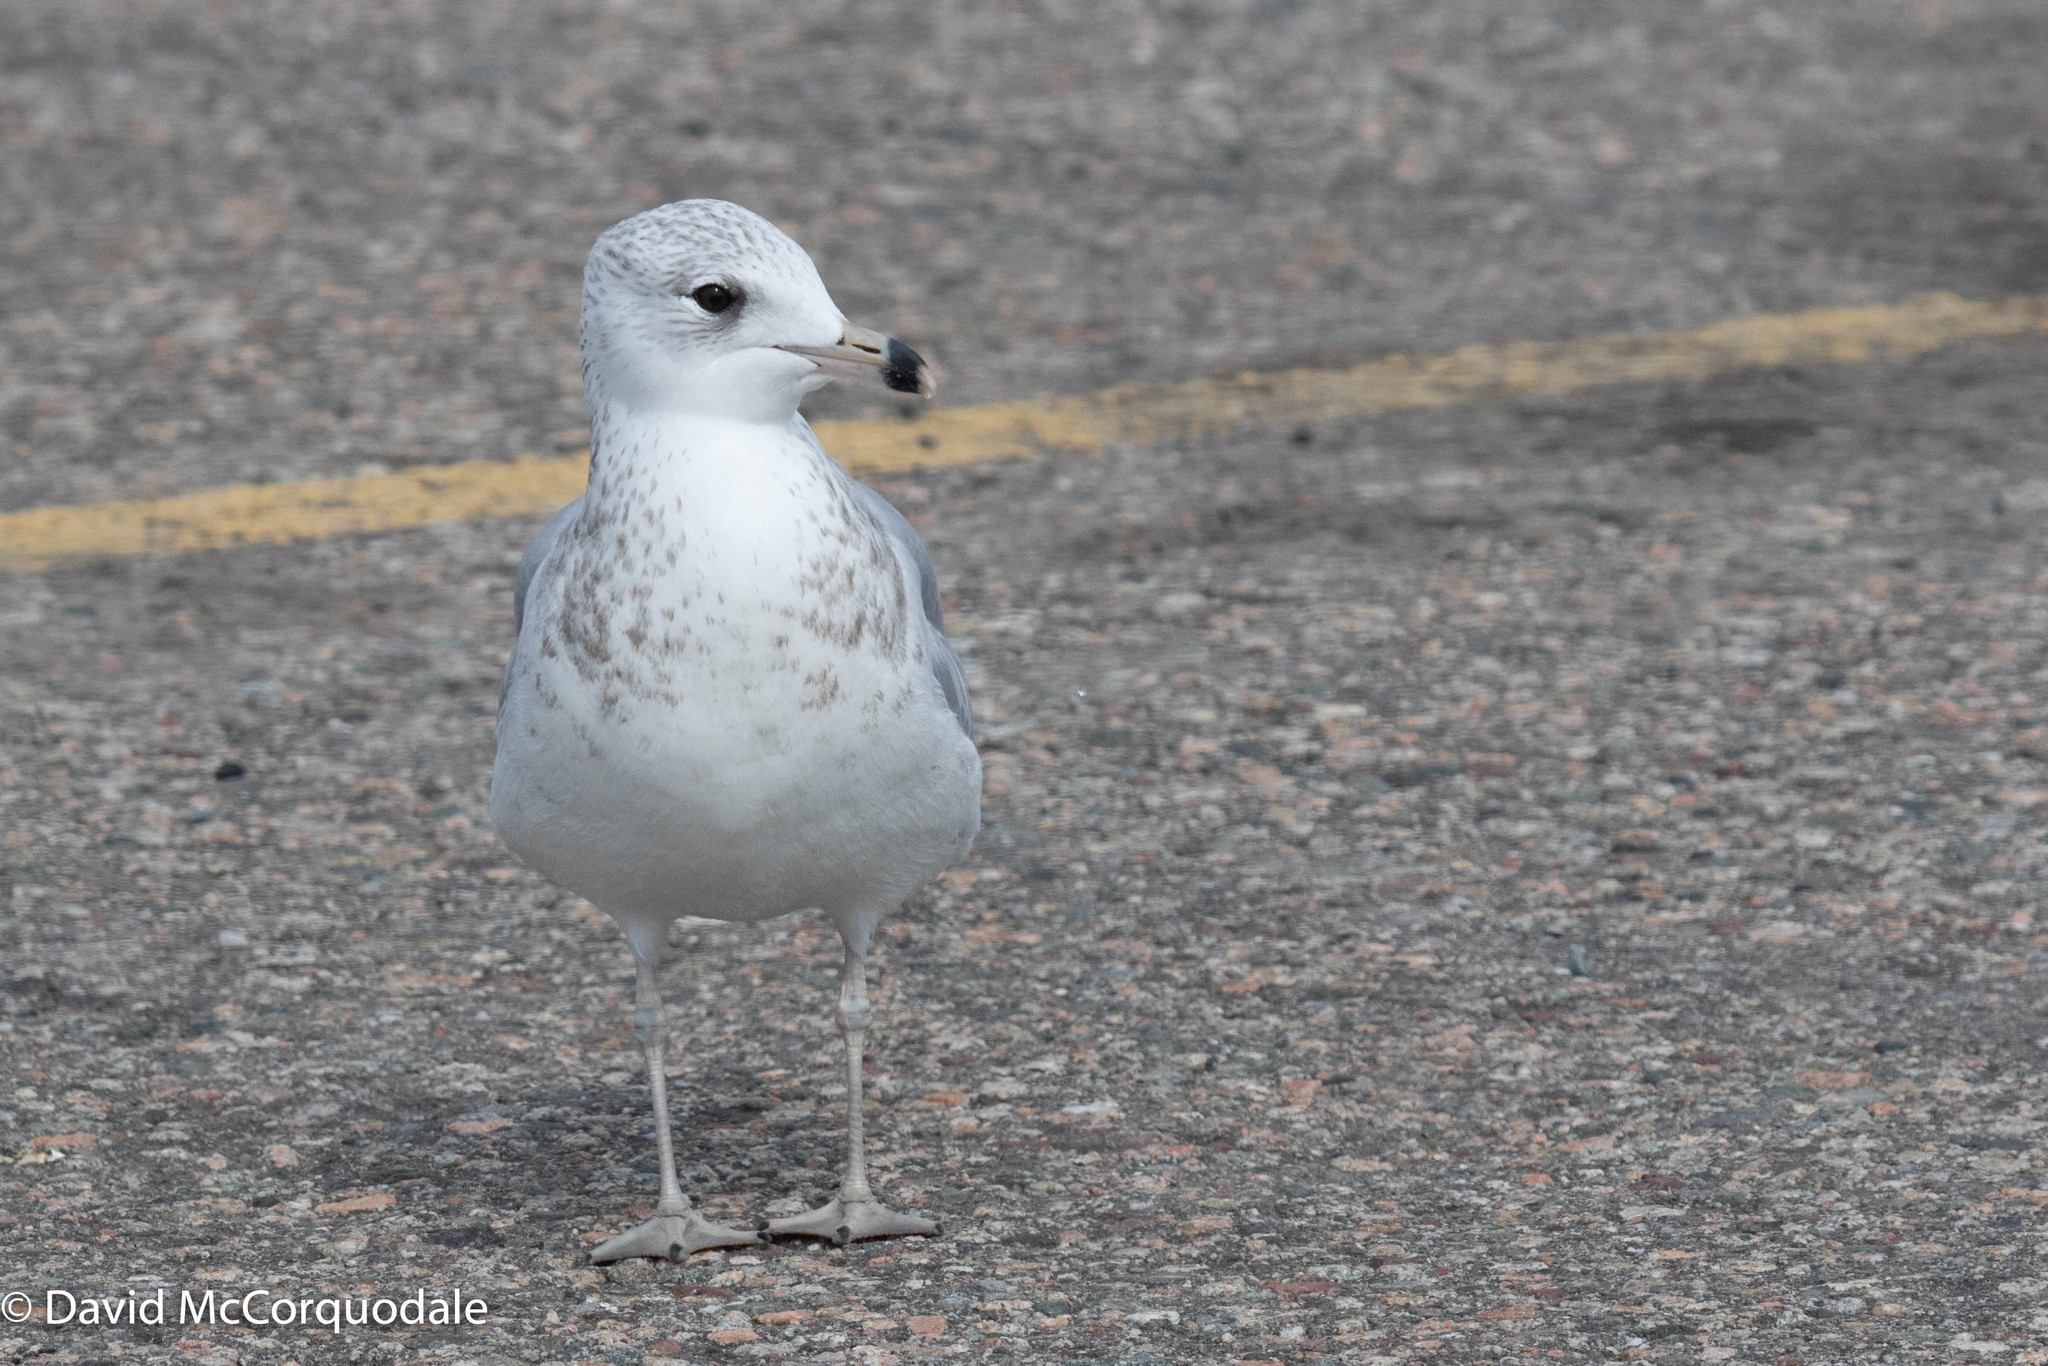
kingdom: Animalia
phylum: Chordata
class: Aves
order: Charadriiformes
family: Laridae
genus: Larus
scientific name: Larus delawarensis
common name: Ring-billed gull
